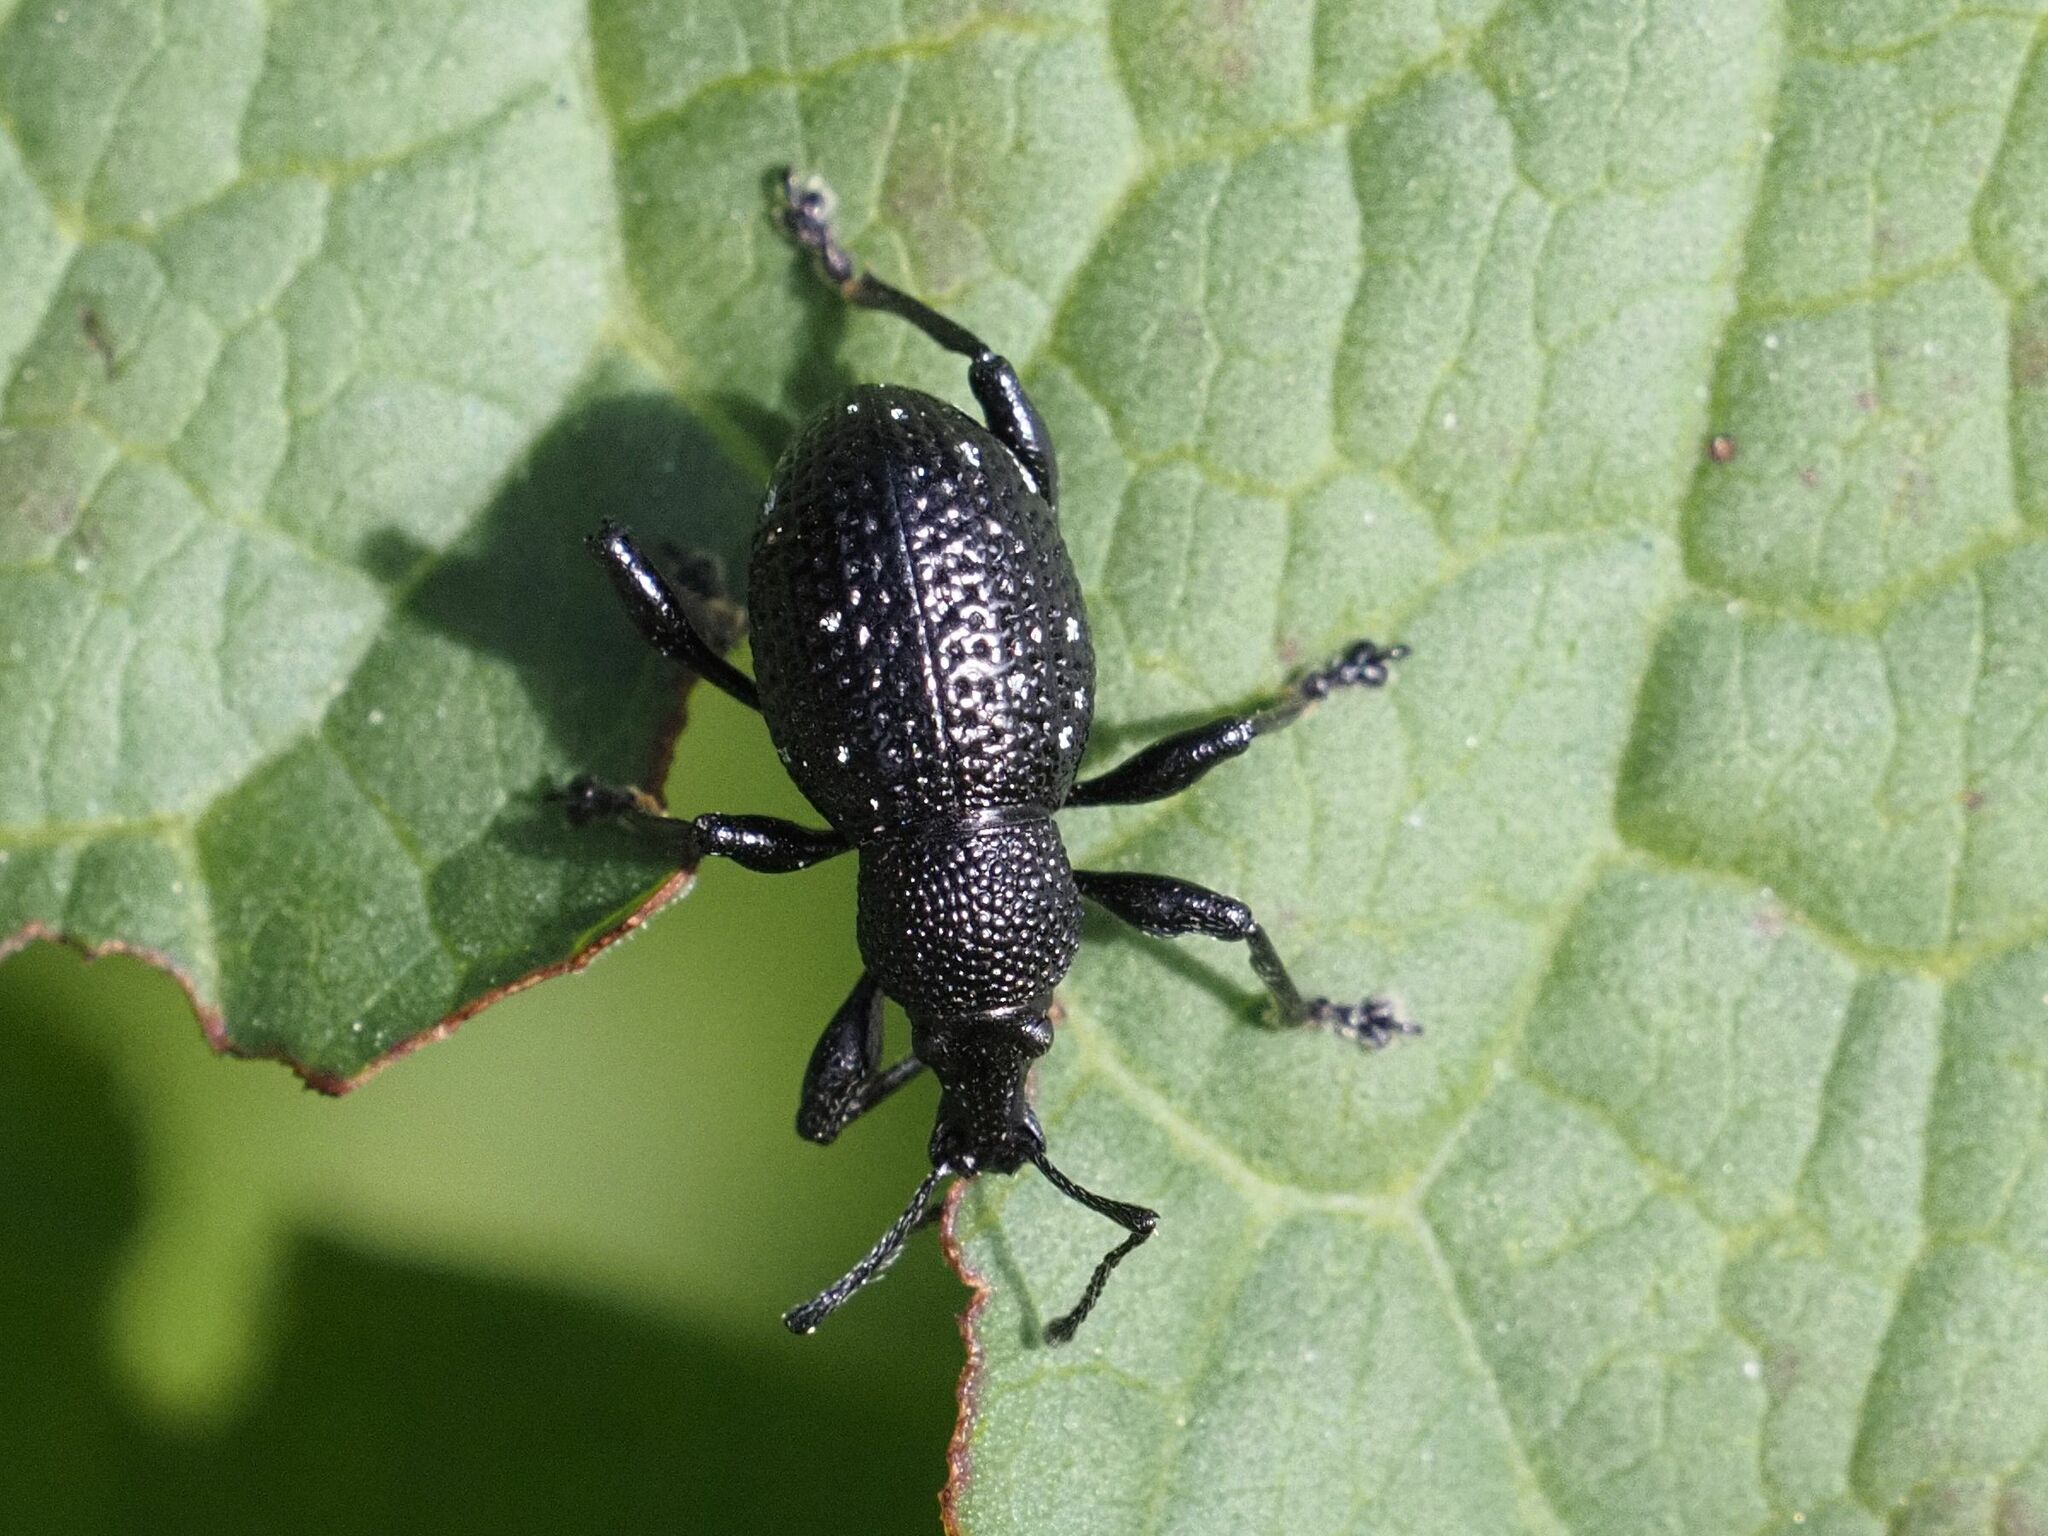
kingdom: Animalia
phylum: Arthropoda
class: Insecta
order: Coleoptera
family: Curculionidae
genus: Otiorhynchus
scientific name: Otiorhynchus gemmatus
